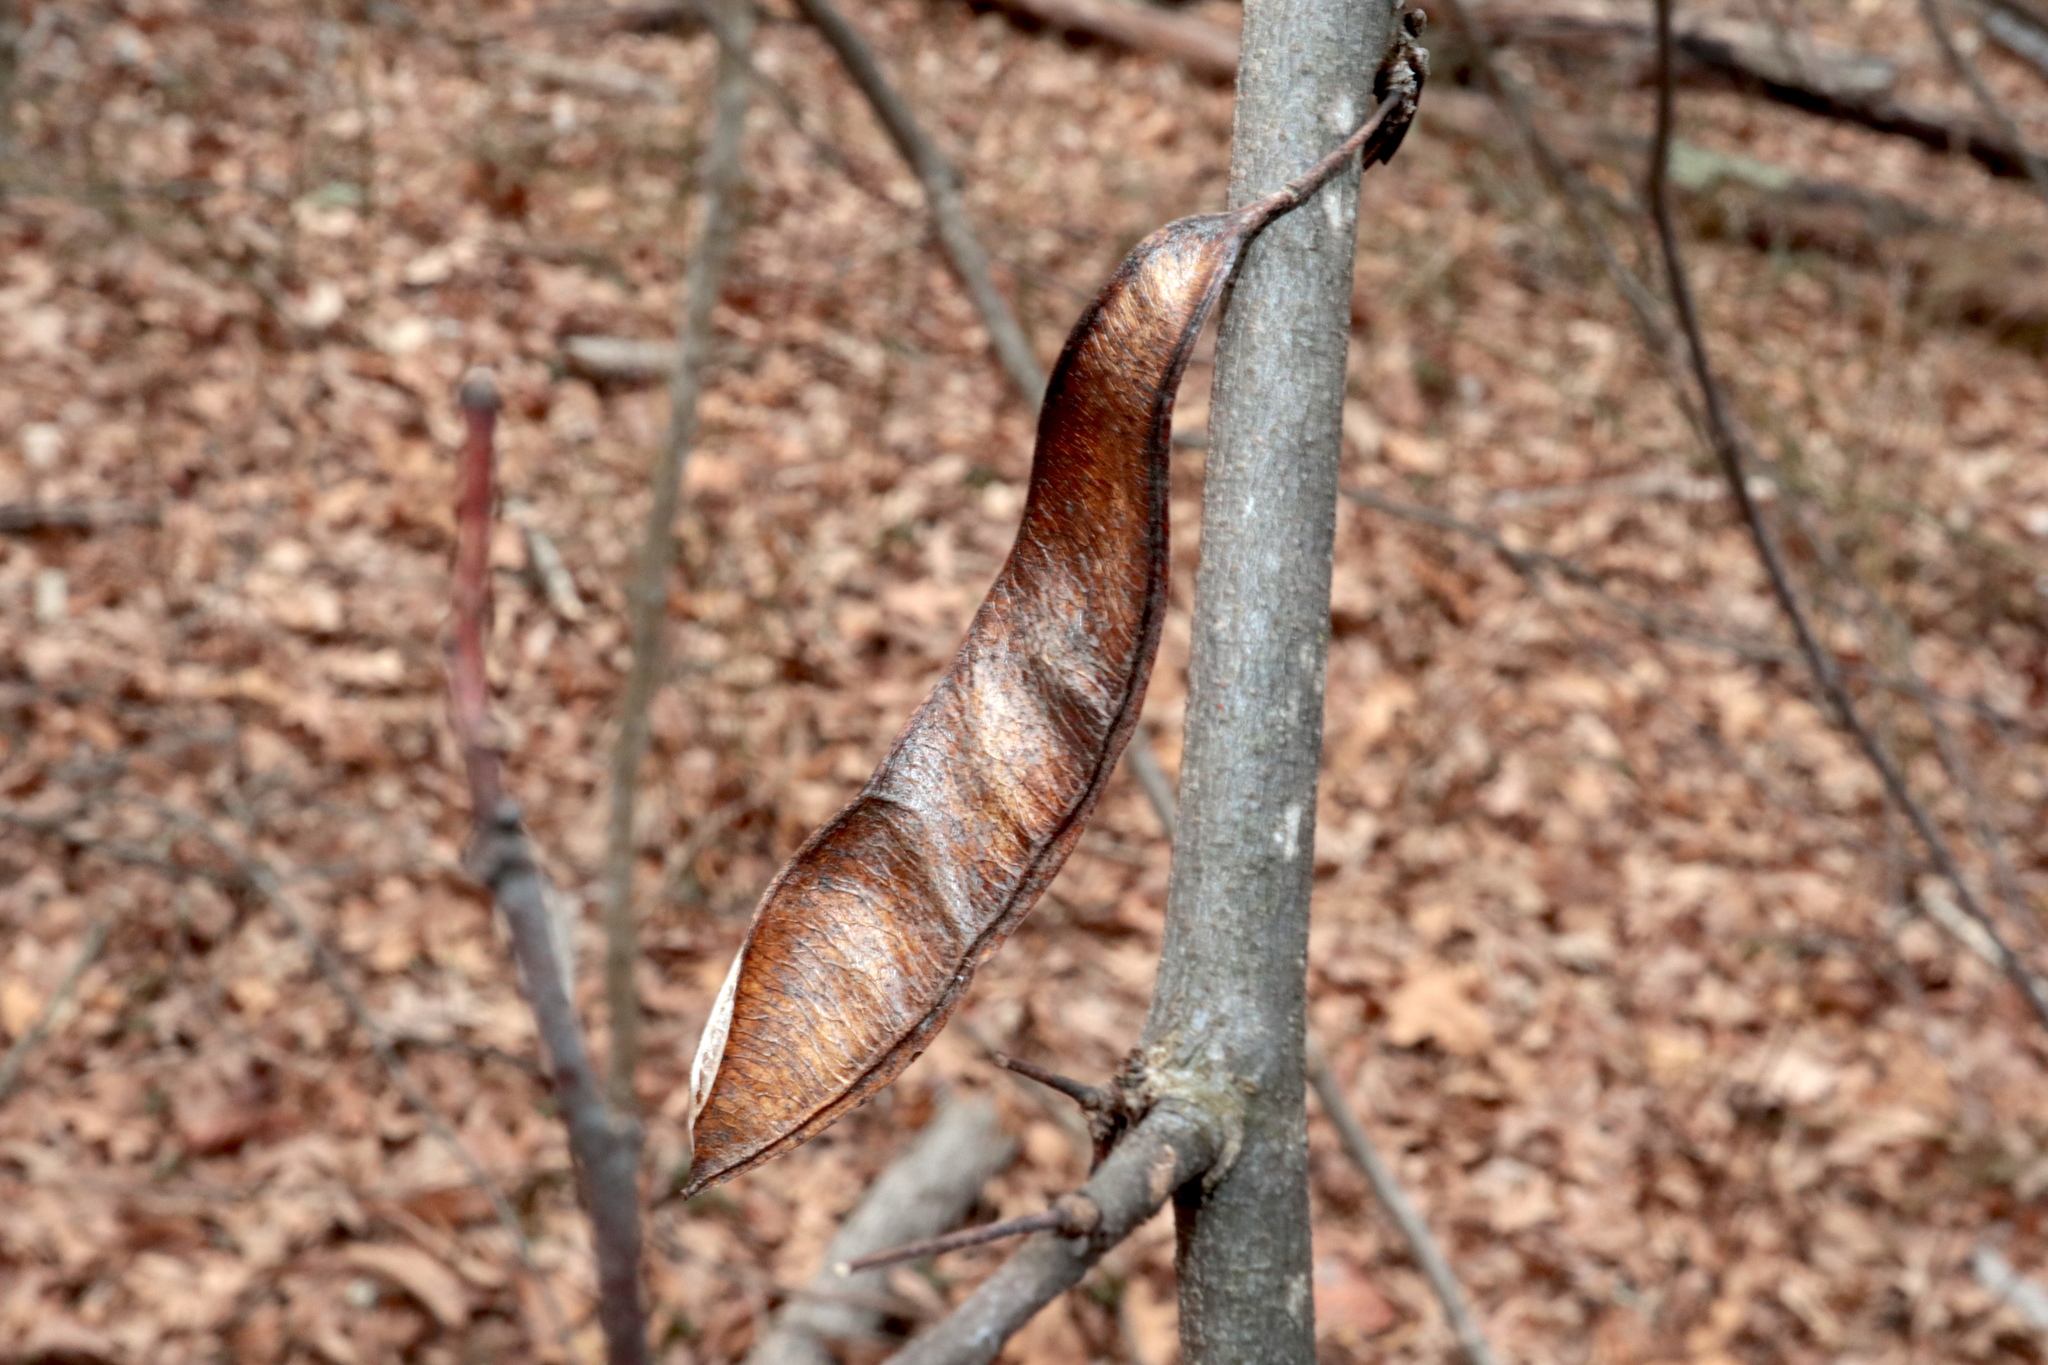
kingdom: Plantae
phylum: Tracheophyta
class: Magnoliopsida
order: Fabales
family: Fabaceae
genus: Cercis
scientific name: Cercis canadensis
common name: Eastern redbud
